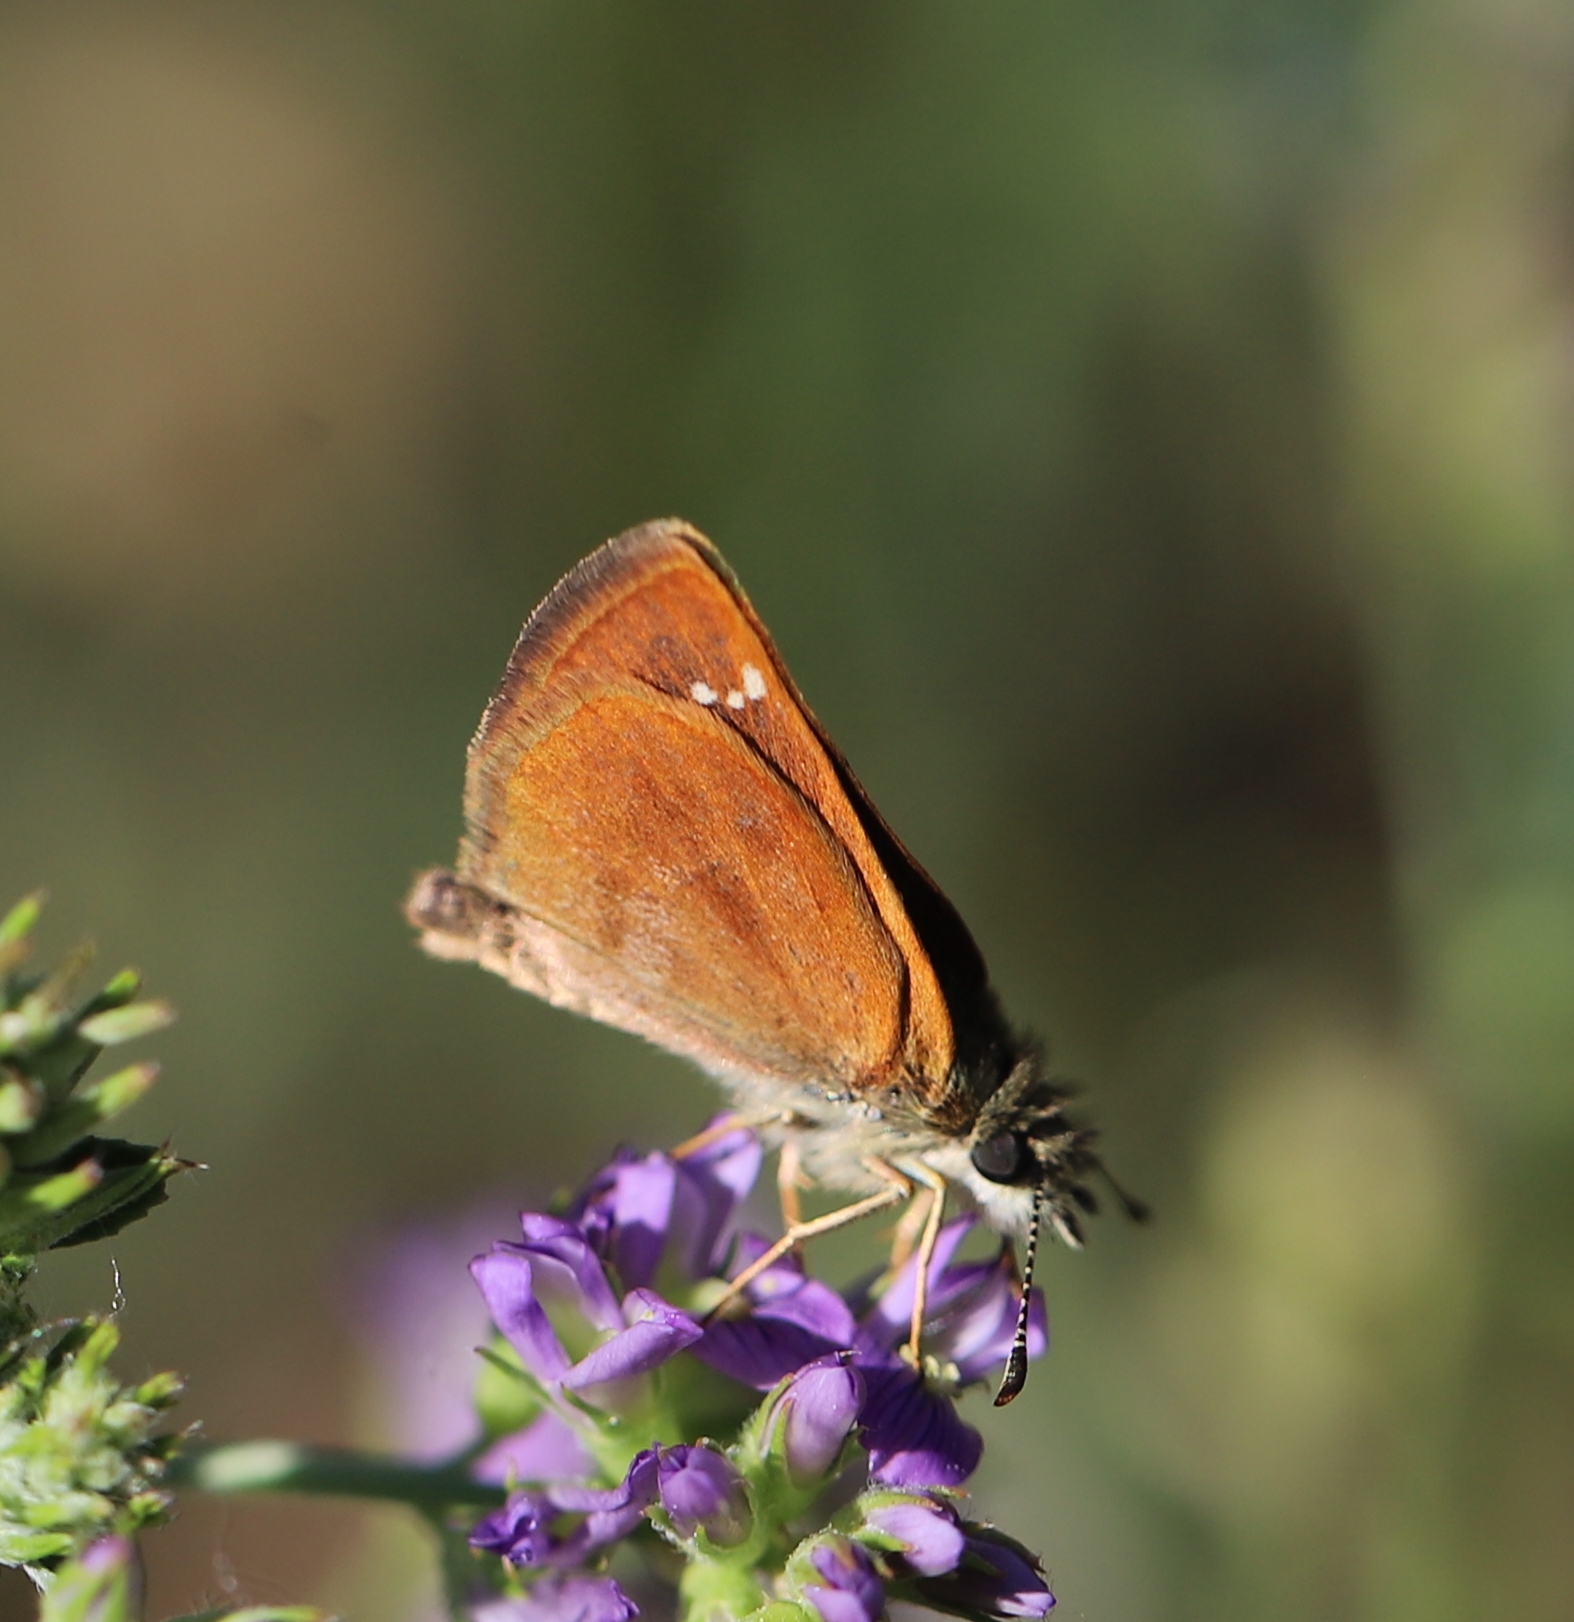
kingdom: Animalia
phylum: Arthropoda
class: Insecta
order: Lepidoptera
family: Hesperiidae
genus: Piruna
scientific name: Piruna pirus
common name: Russet skipperling
